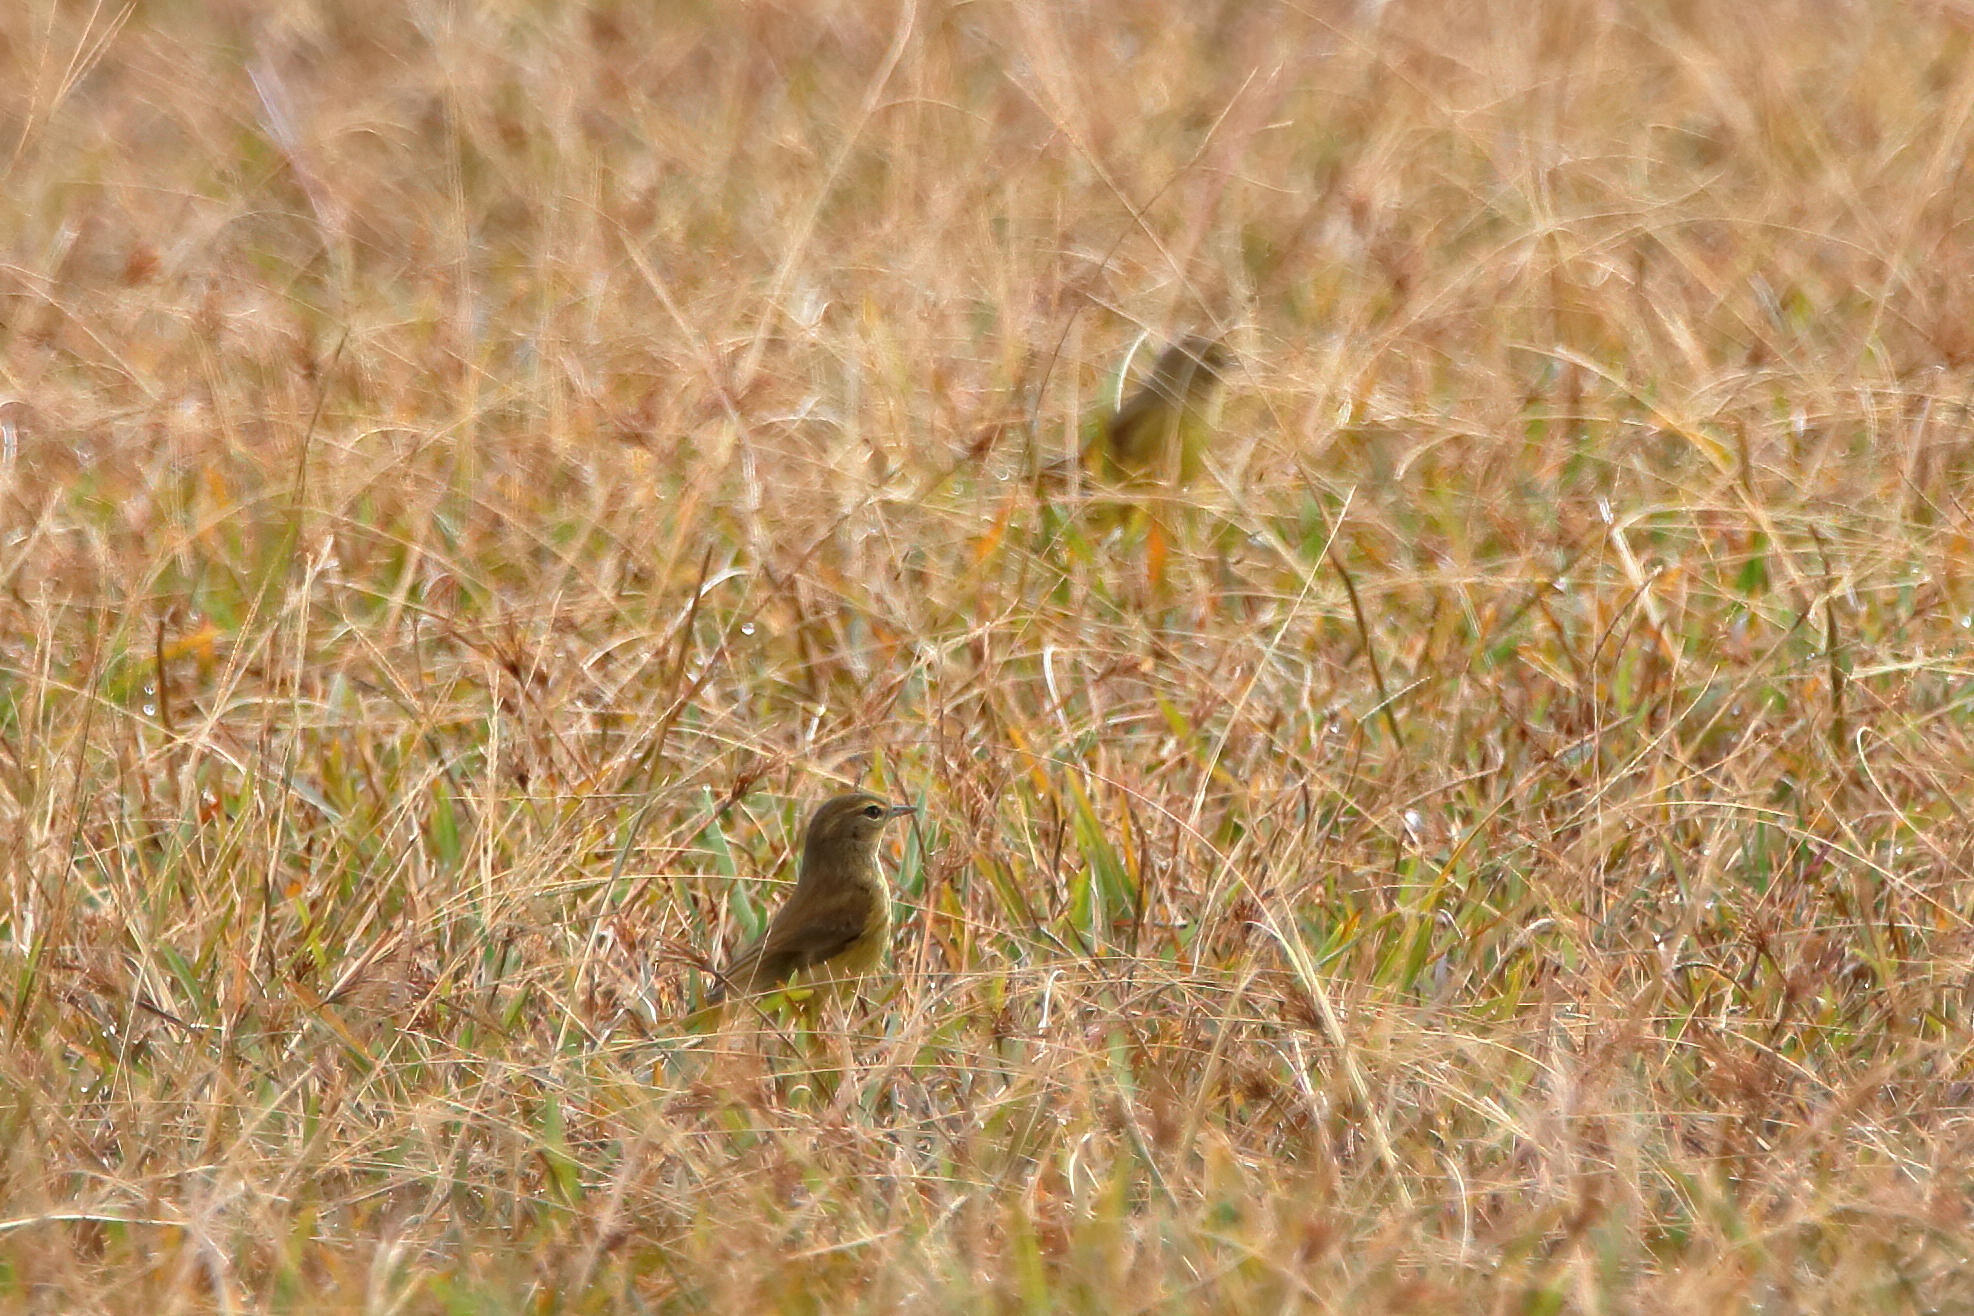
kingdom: Animalia
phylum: Chordata
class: Aves
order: Passeriformes
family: Parulidae
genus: Setophaga
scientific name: Setophaga palmarum
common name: Palm warbler
